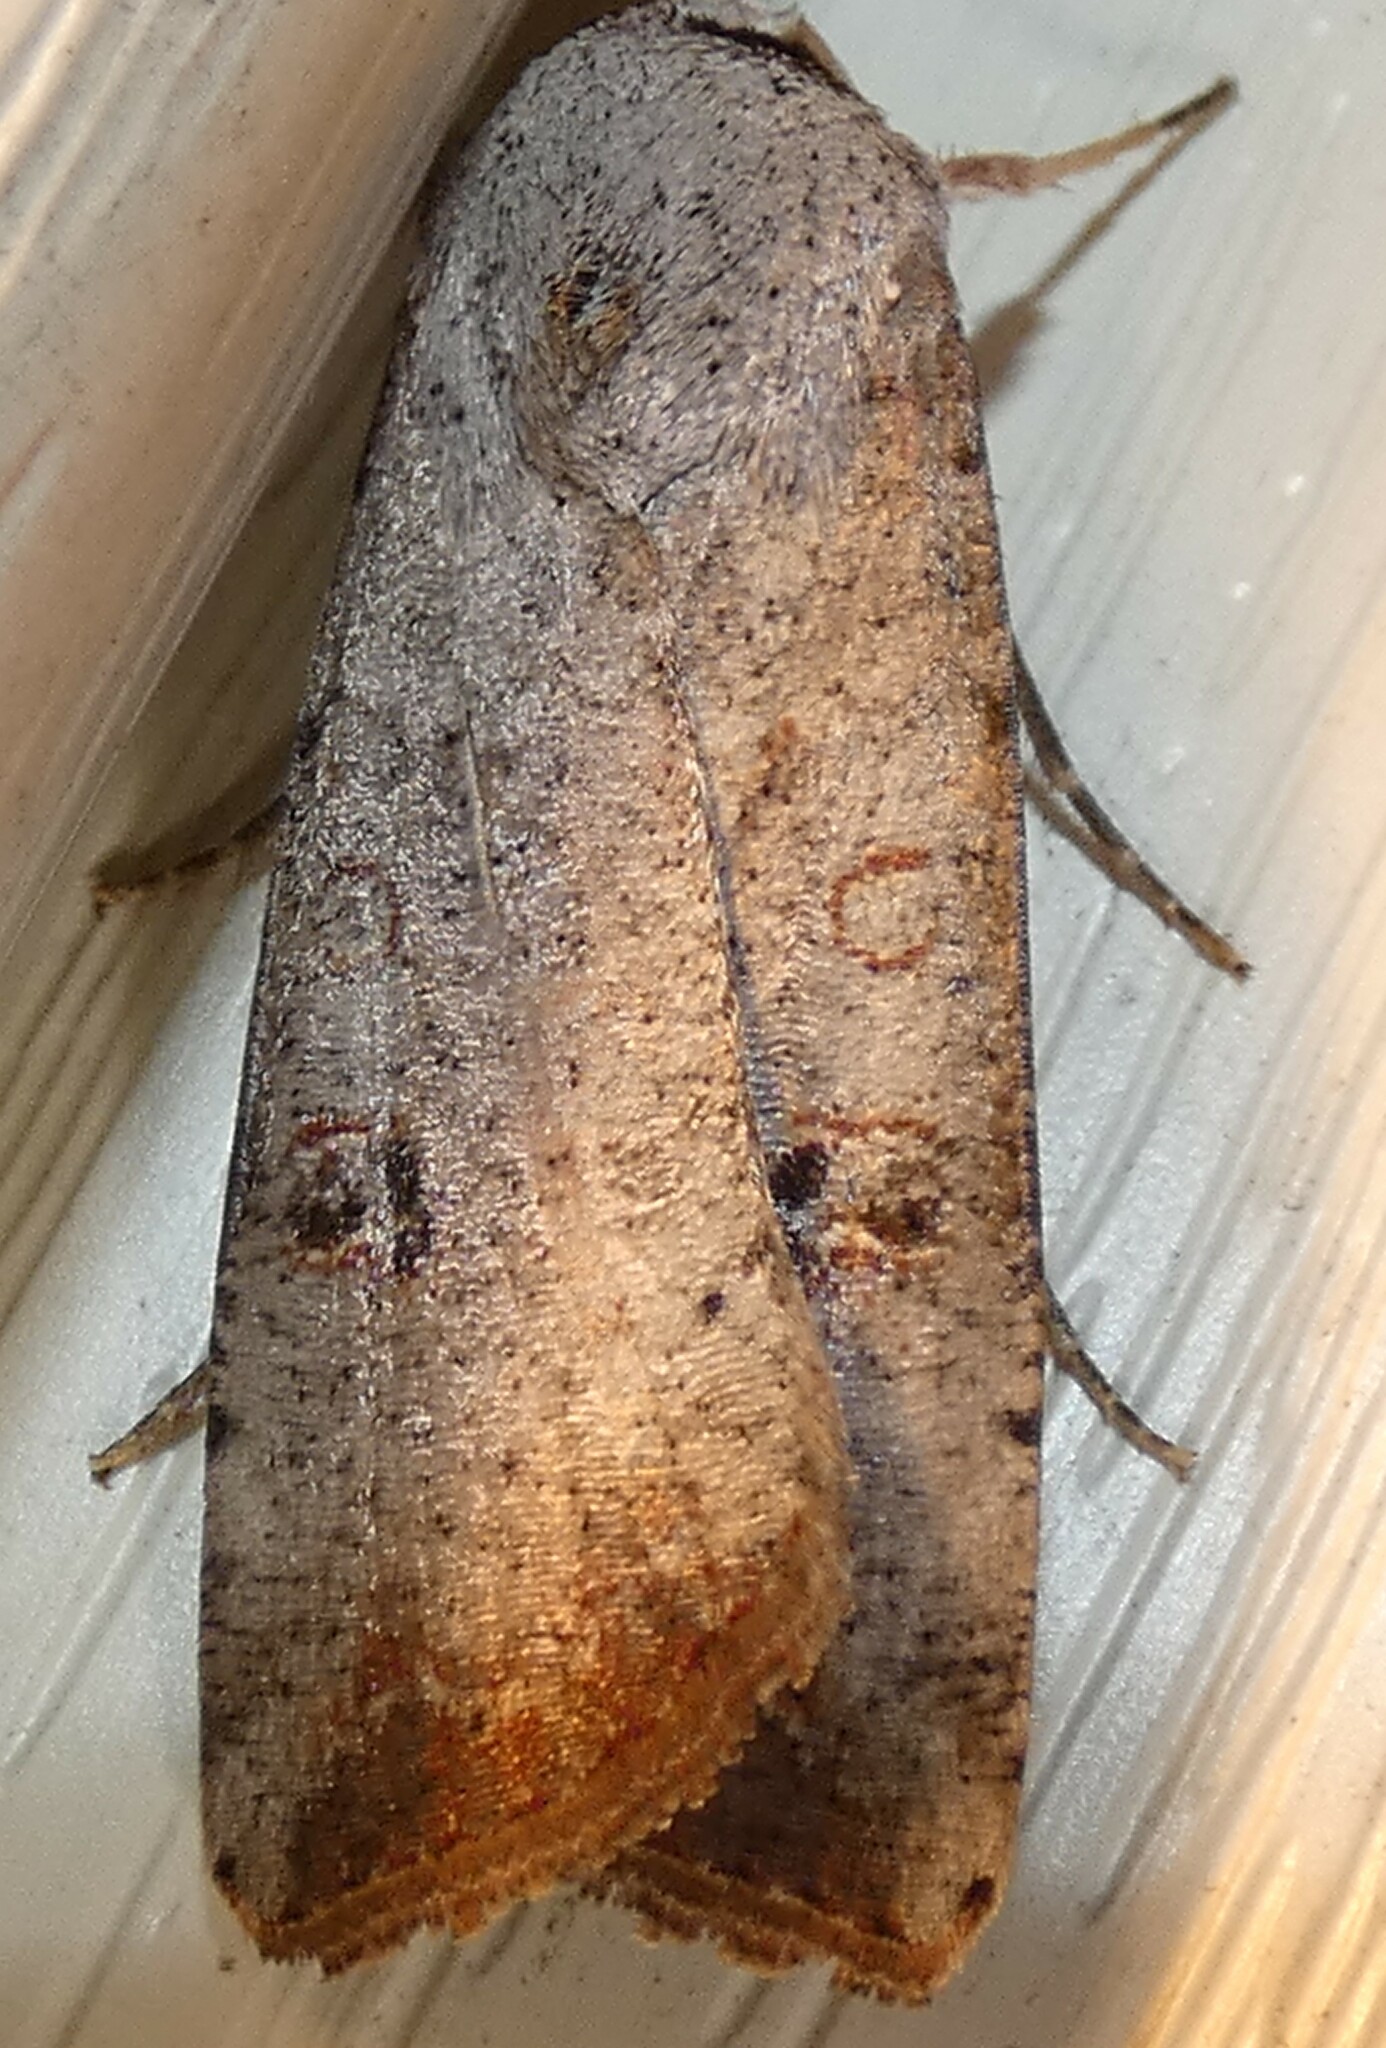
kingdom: Animalia
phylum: Arthropoda
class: Insecta
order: Lepidoptera
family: Noctuidae
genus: Anicla
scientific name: Anicla infecta
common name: Green cutworm
